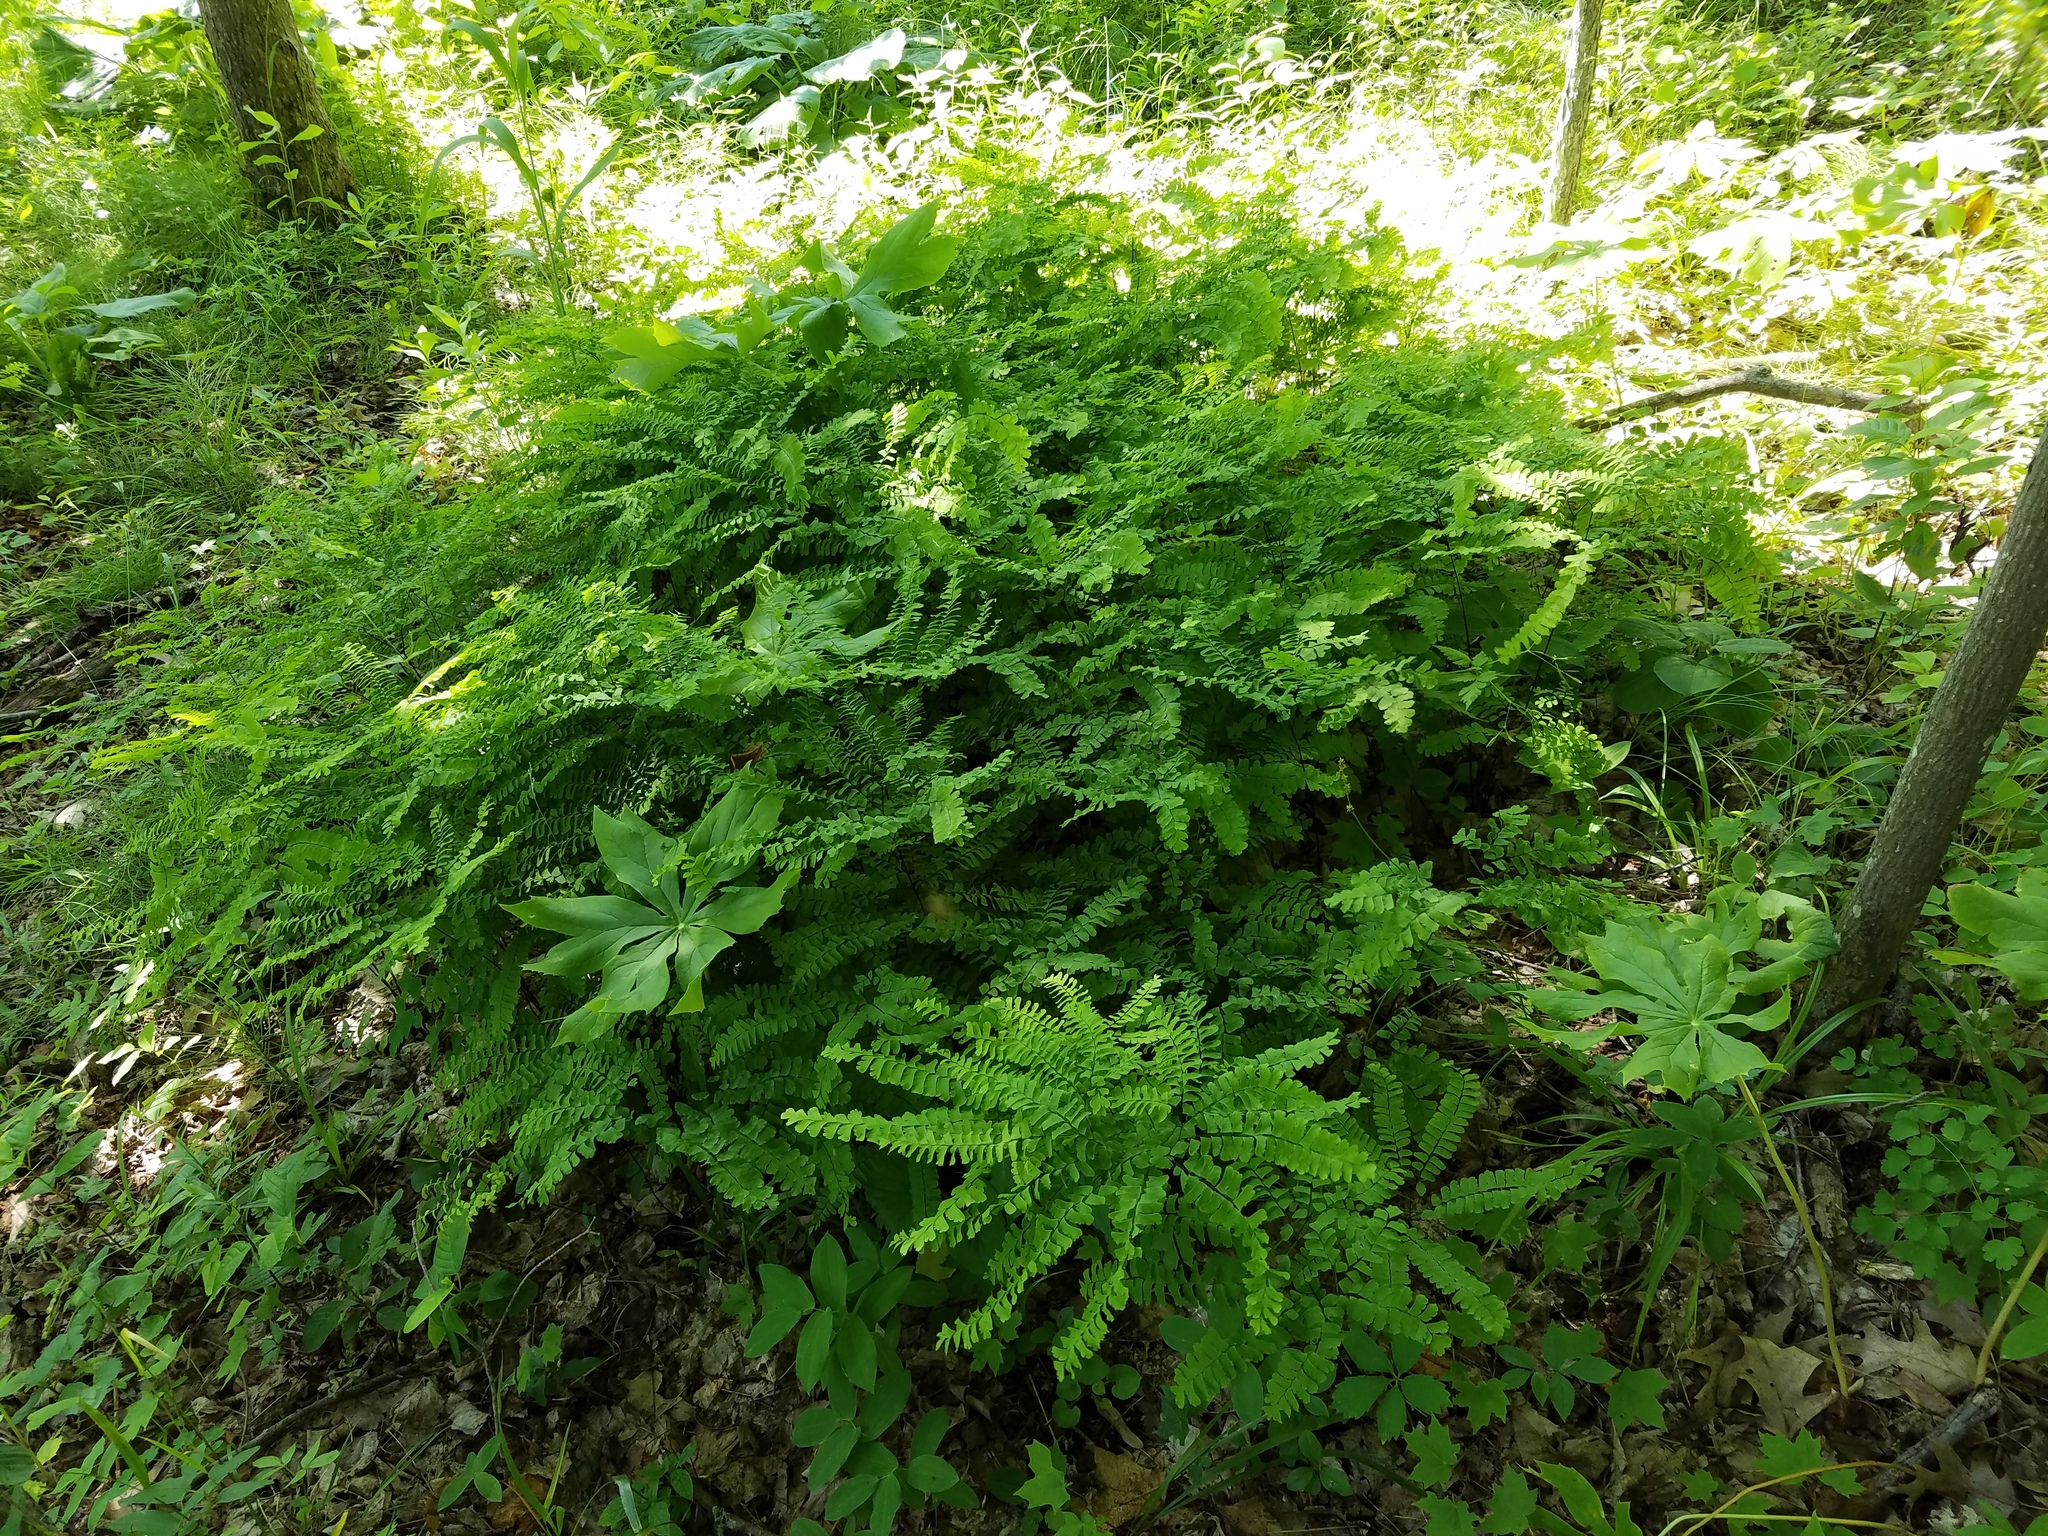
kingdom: Plantae
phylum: Tracheophyta
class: Polypodiopsida
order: Polypodiales
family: Pteridaceae
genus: Adiantum
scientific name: Adiantum pedatum
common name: Five-finger fern
